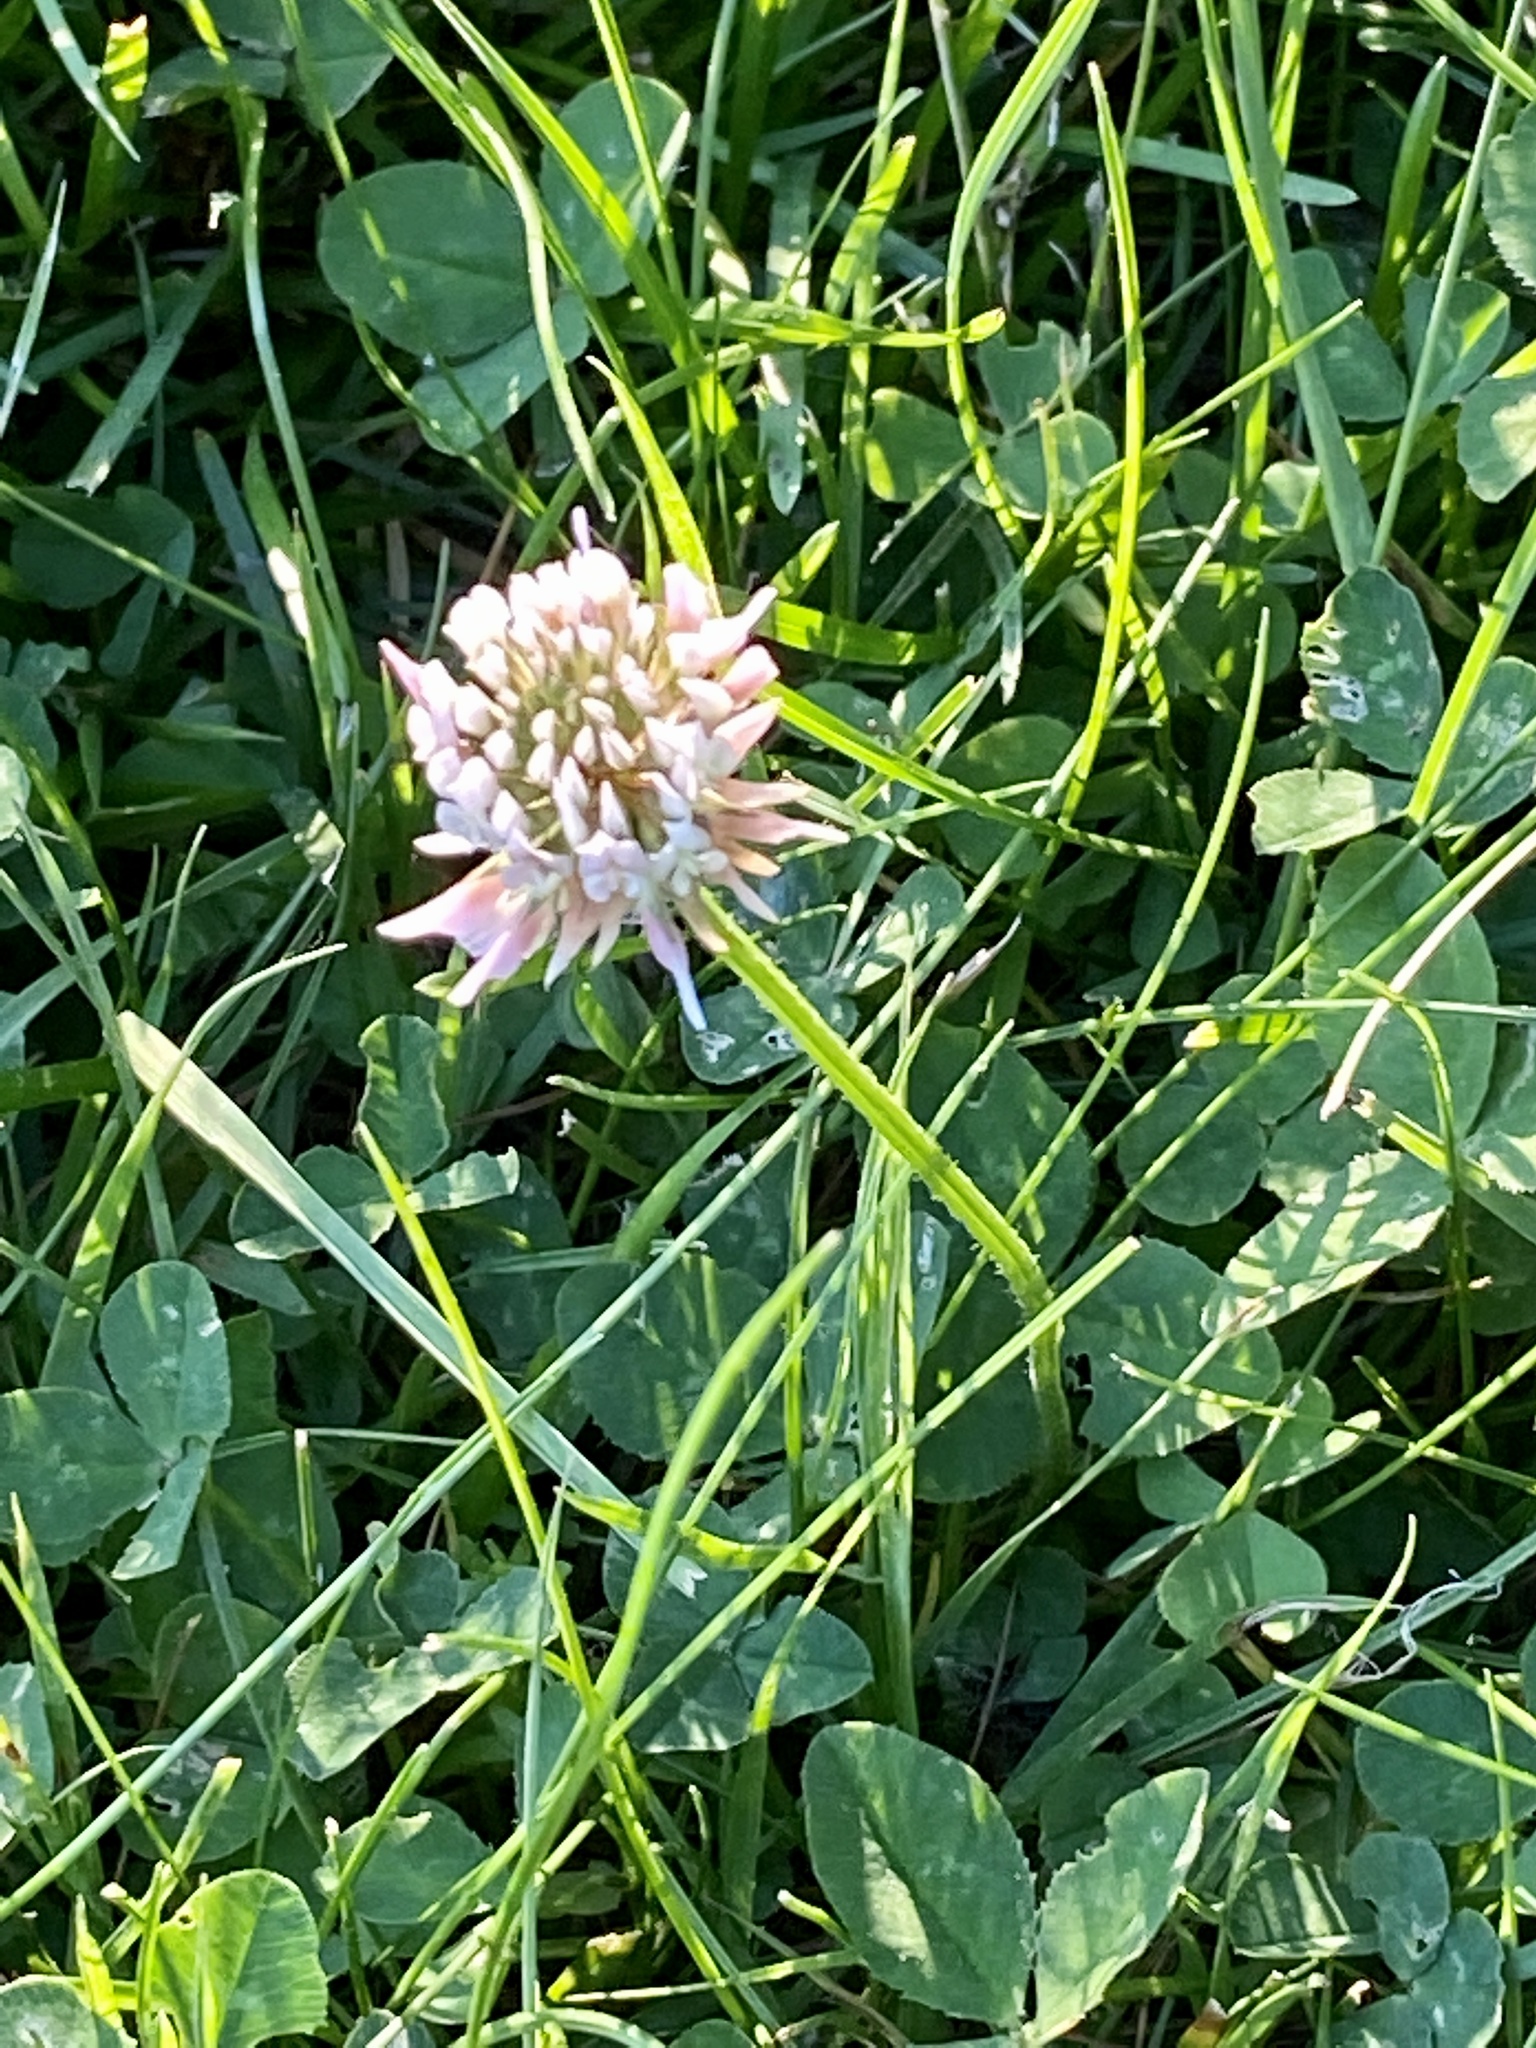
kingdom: Plantae
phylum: Tracheophyta
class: Magnoliopsida
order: Fabales
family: Fabaceae
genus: Trifolium
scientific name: Trifolium repens
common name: White clover
